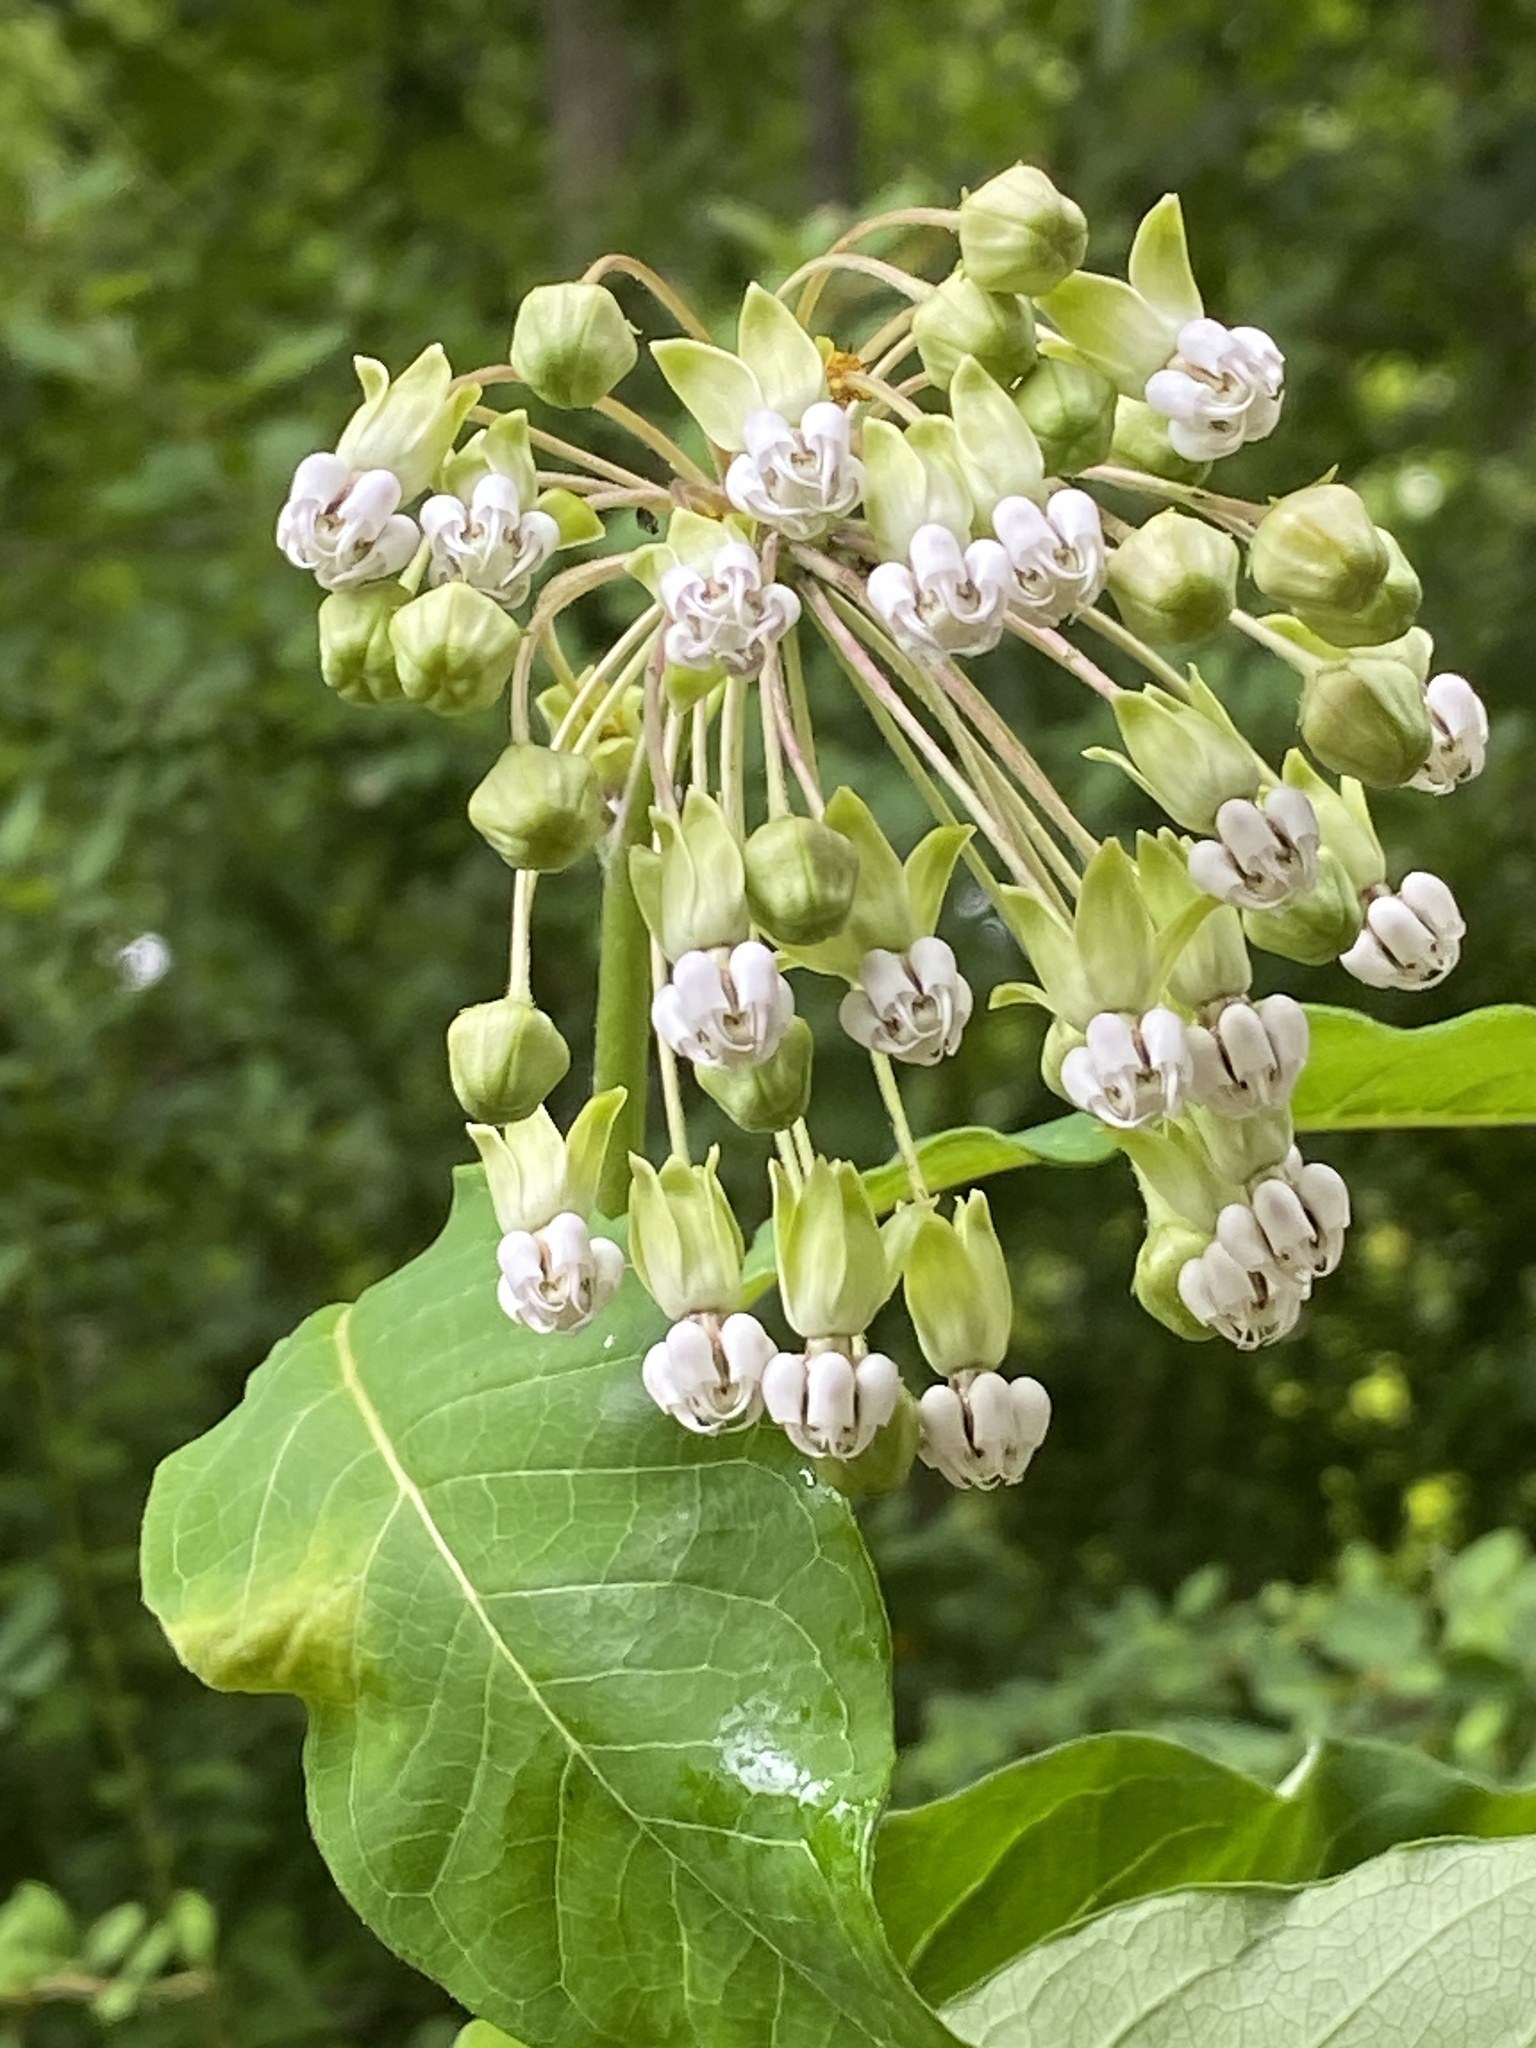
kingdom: Plantae
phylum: Tracheophyta
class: Magnoliopsida
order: Gentianales
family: Apocynaceae
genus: Asclepias
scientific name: Asclepias exaltata
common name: Poke milkweed
